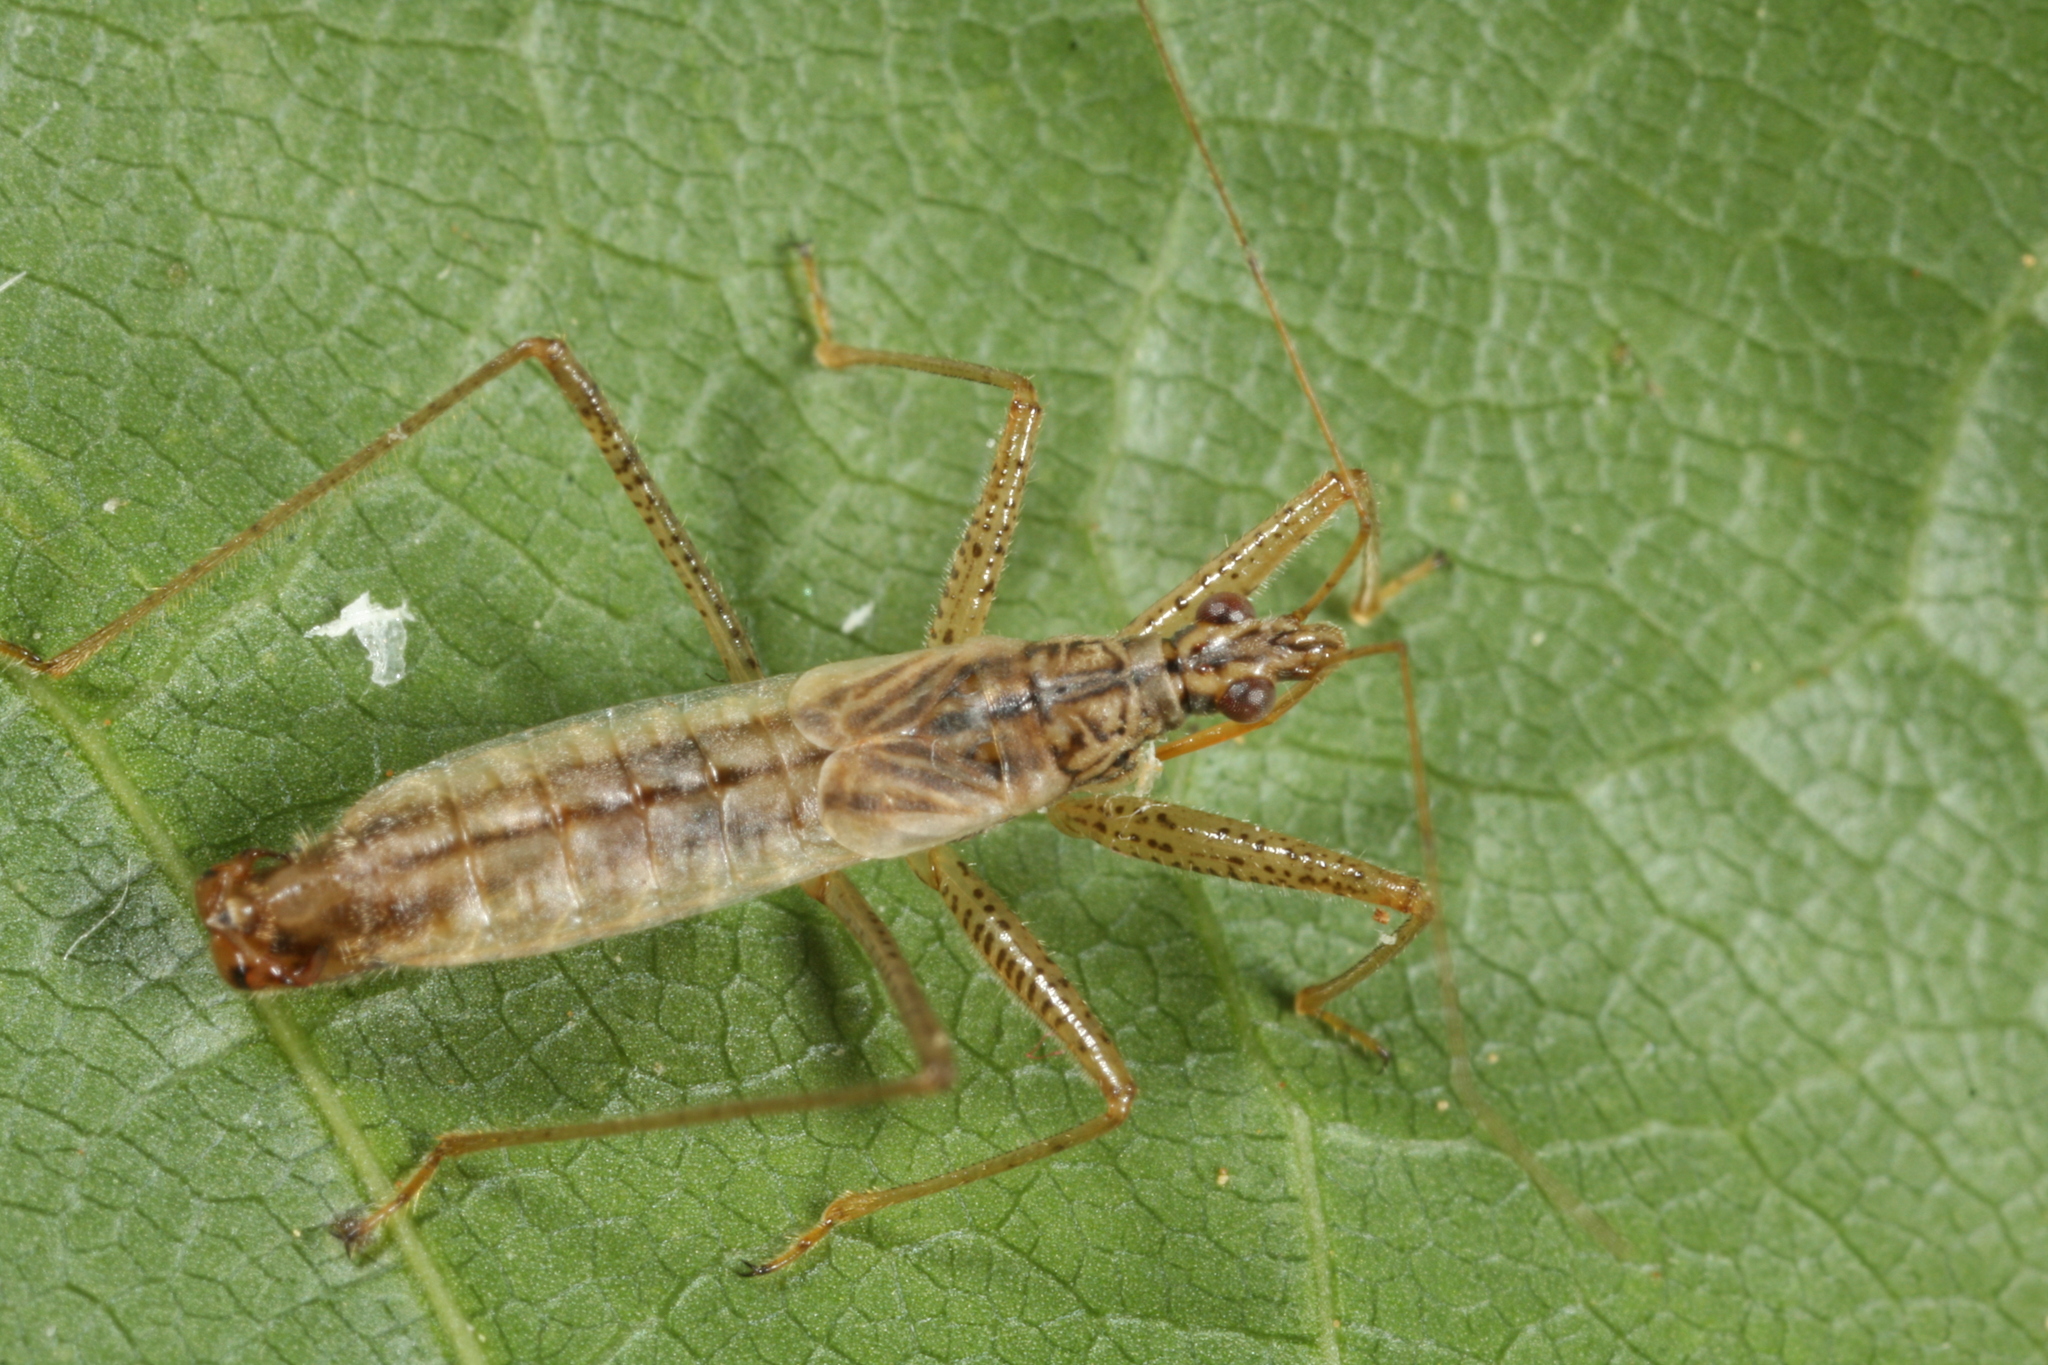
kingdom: Animalia
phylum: Arthropoda
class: Insecta
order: Hemiptera
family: Nabidae
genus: Nabis
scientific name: Nabis limbatus
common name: Marsh damselbug
